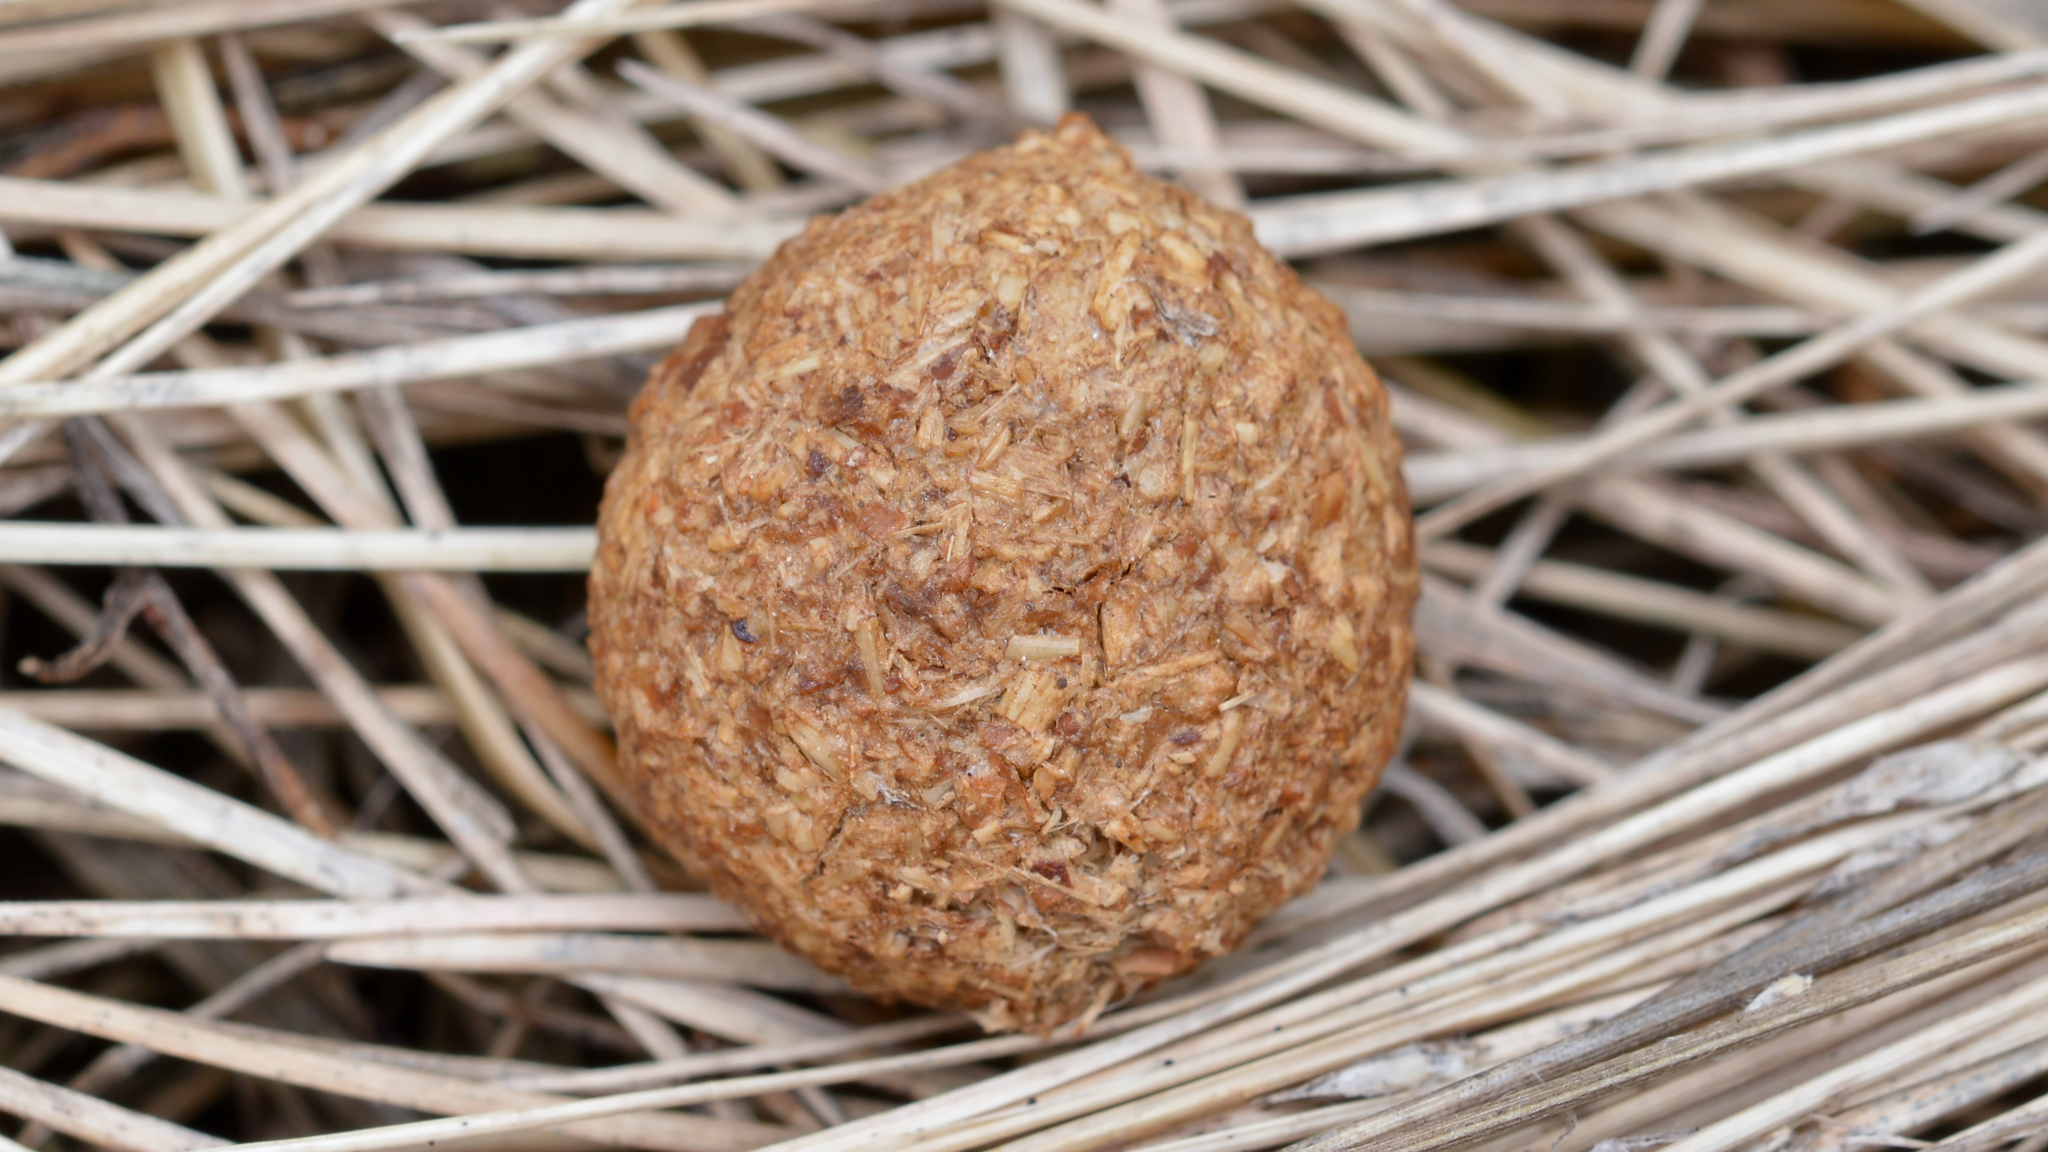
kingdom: Animalia
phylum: Chordata
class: Mammalia
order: Lagomorpha
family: Leporidae
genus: Sylvilagus
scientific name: Sylvilagus floridanus
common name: Eastern cottontail
